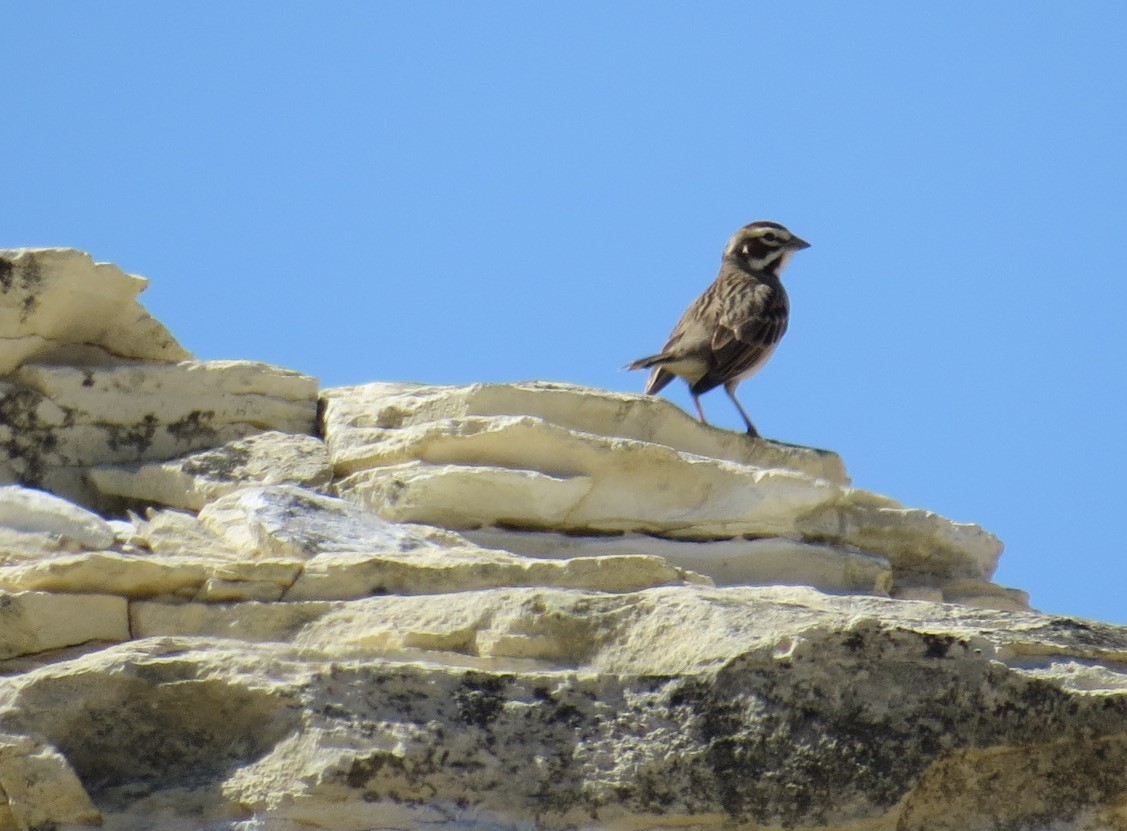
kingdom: Animalia
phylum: Chordata
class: Aves
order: Passeriformes
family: Passerellidae
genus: Chondestes
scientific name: Chondestes grammacus
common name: Lark sparrow
